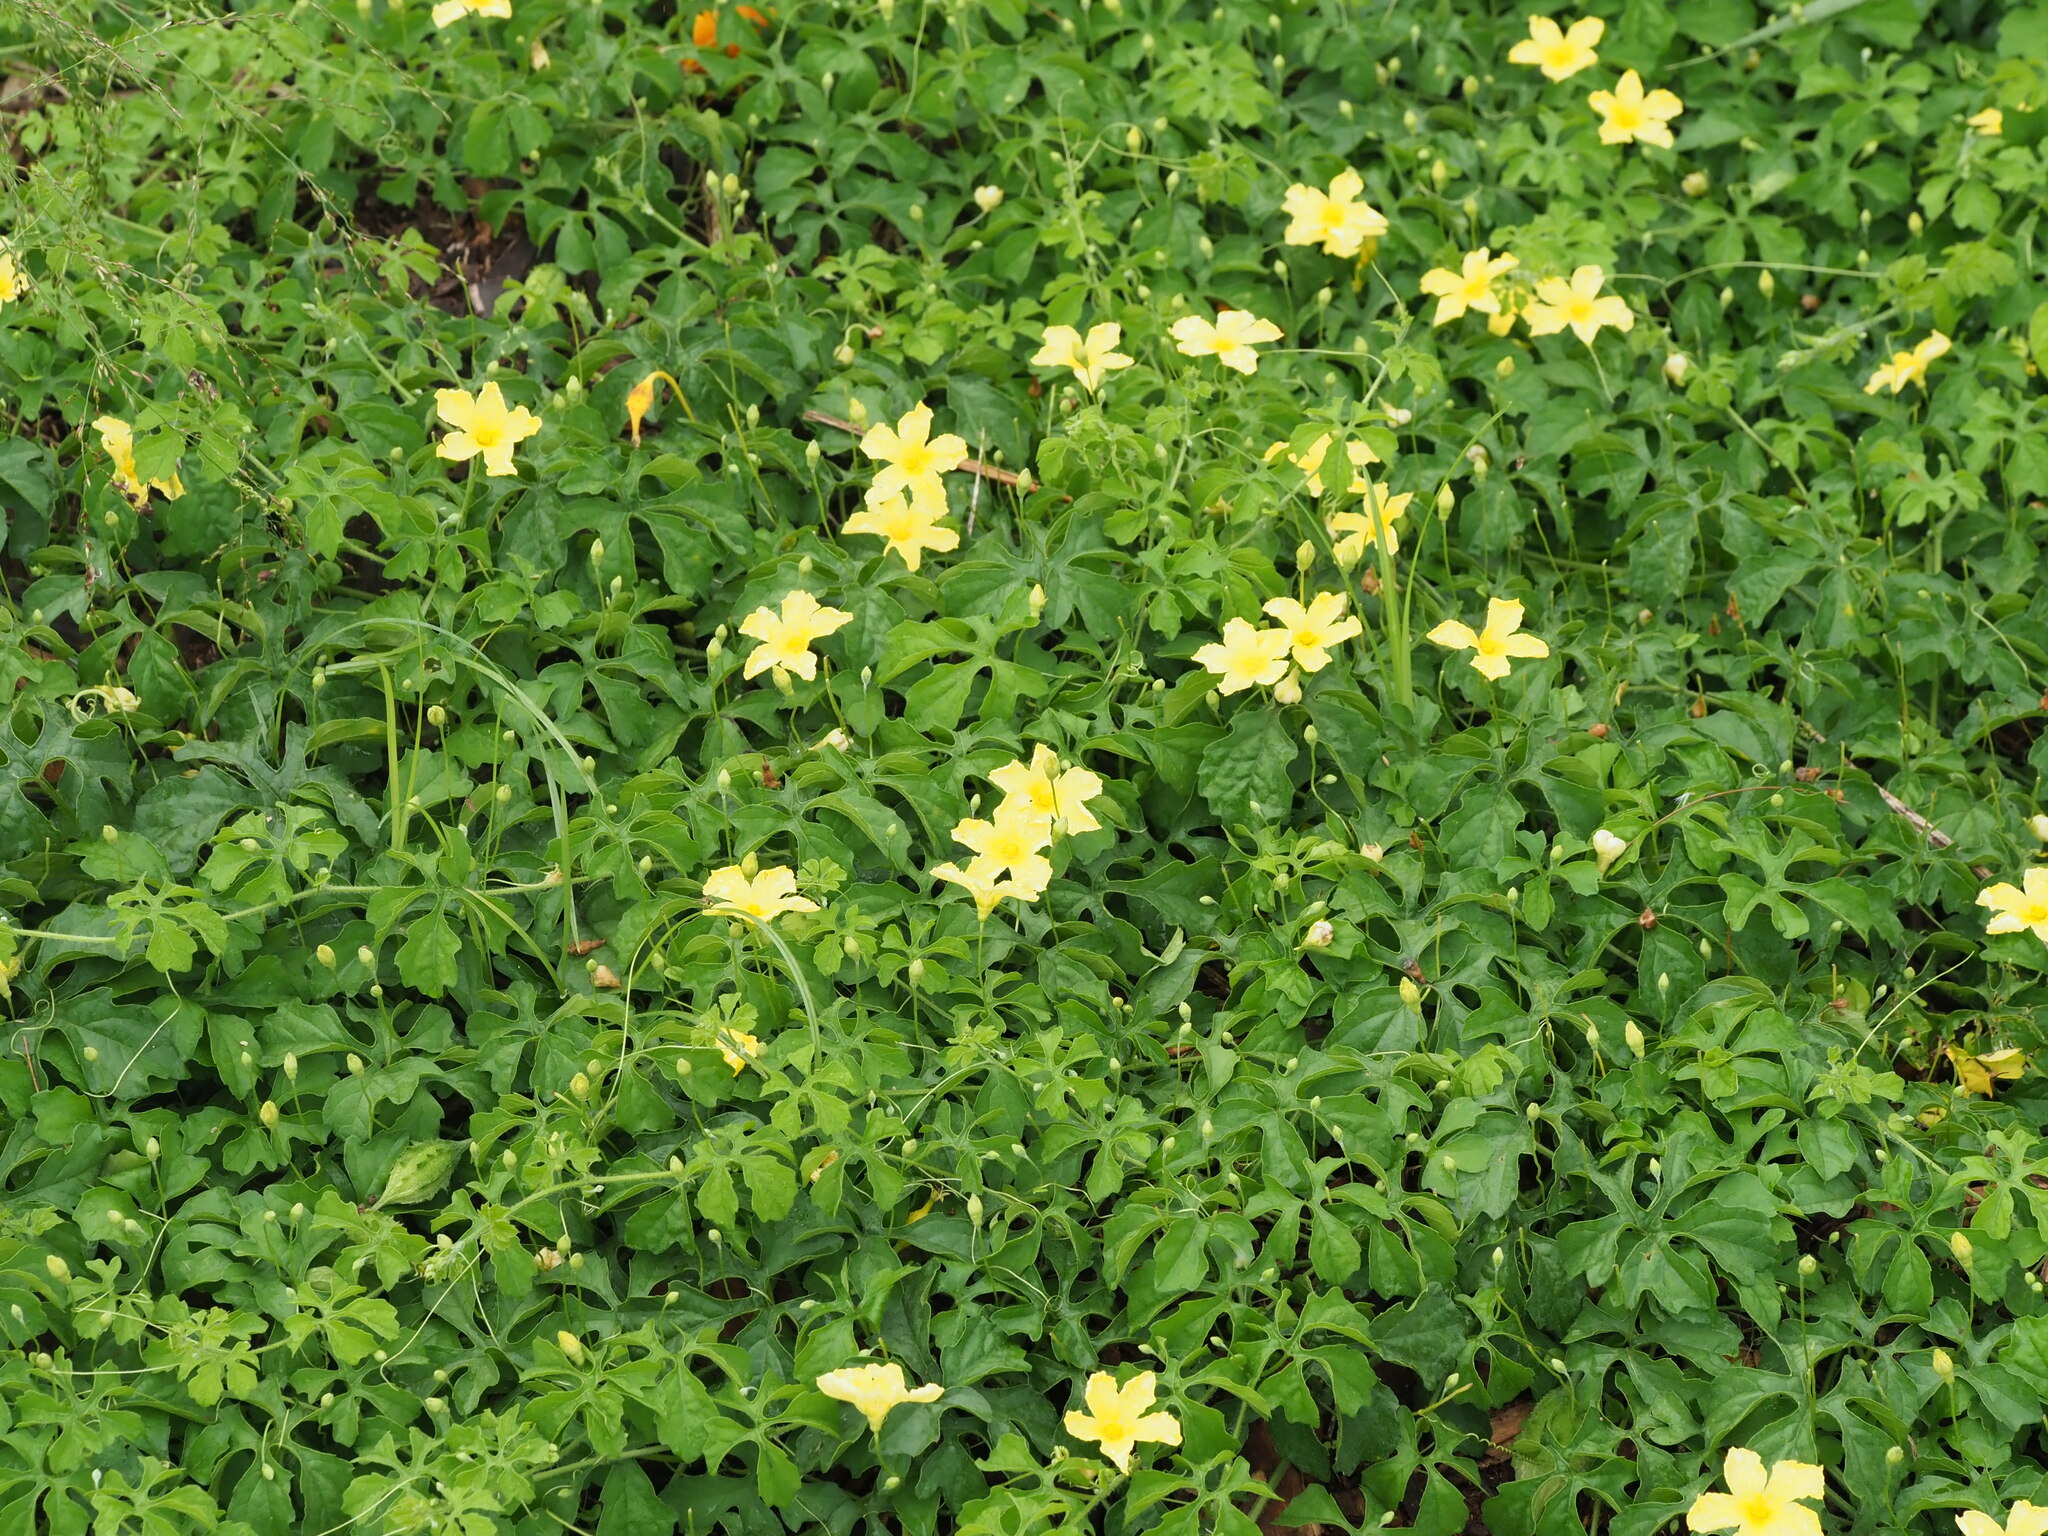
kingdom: Plantae
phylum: Tracheophyta
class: Magnoliopsida
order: Cucurbitales
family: Cucurbitaceae
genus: Momordica
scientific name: Momordica charantia
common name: Balsampear
